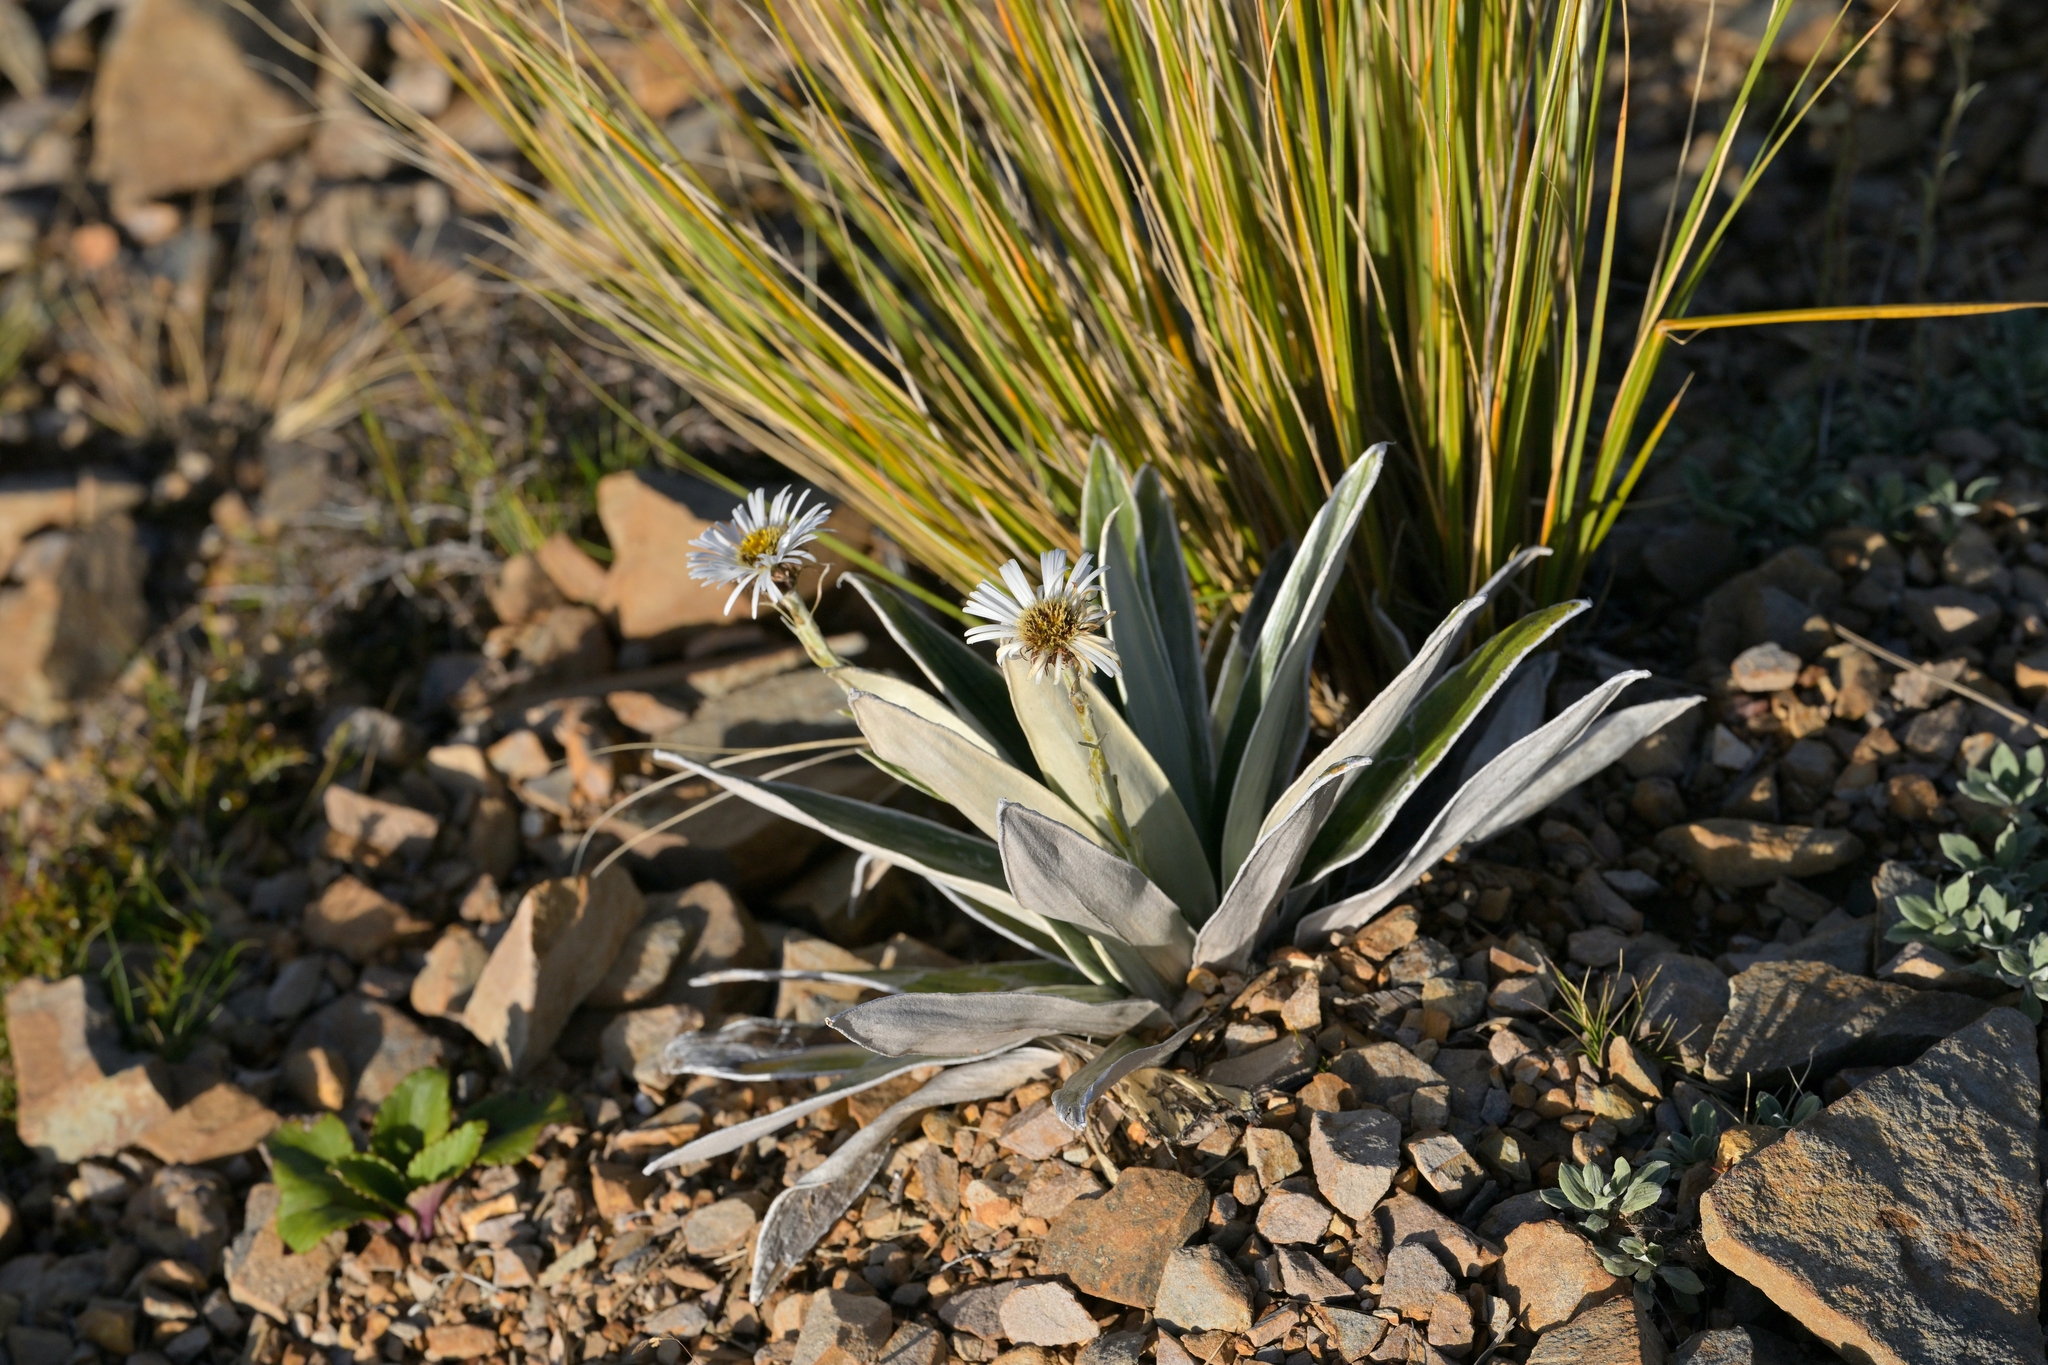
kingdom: Plantae
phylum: Tracheophyta
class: Magnoliopsida
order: Asterales
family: Asteraceae
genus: Celmisia
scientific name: Celmisia semicordata
